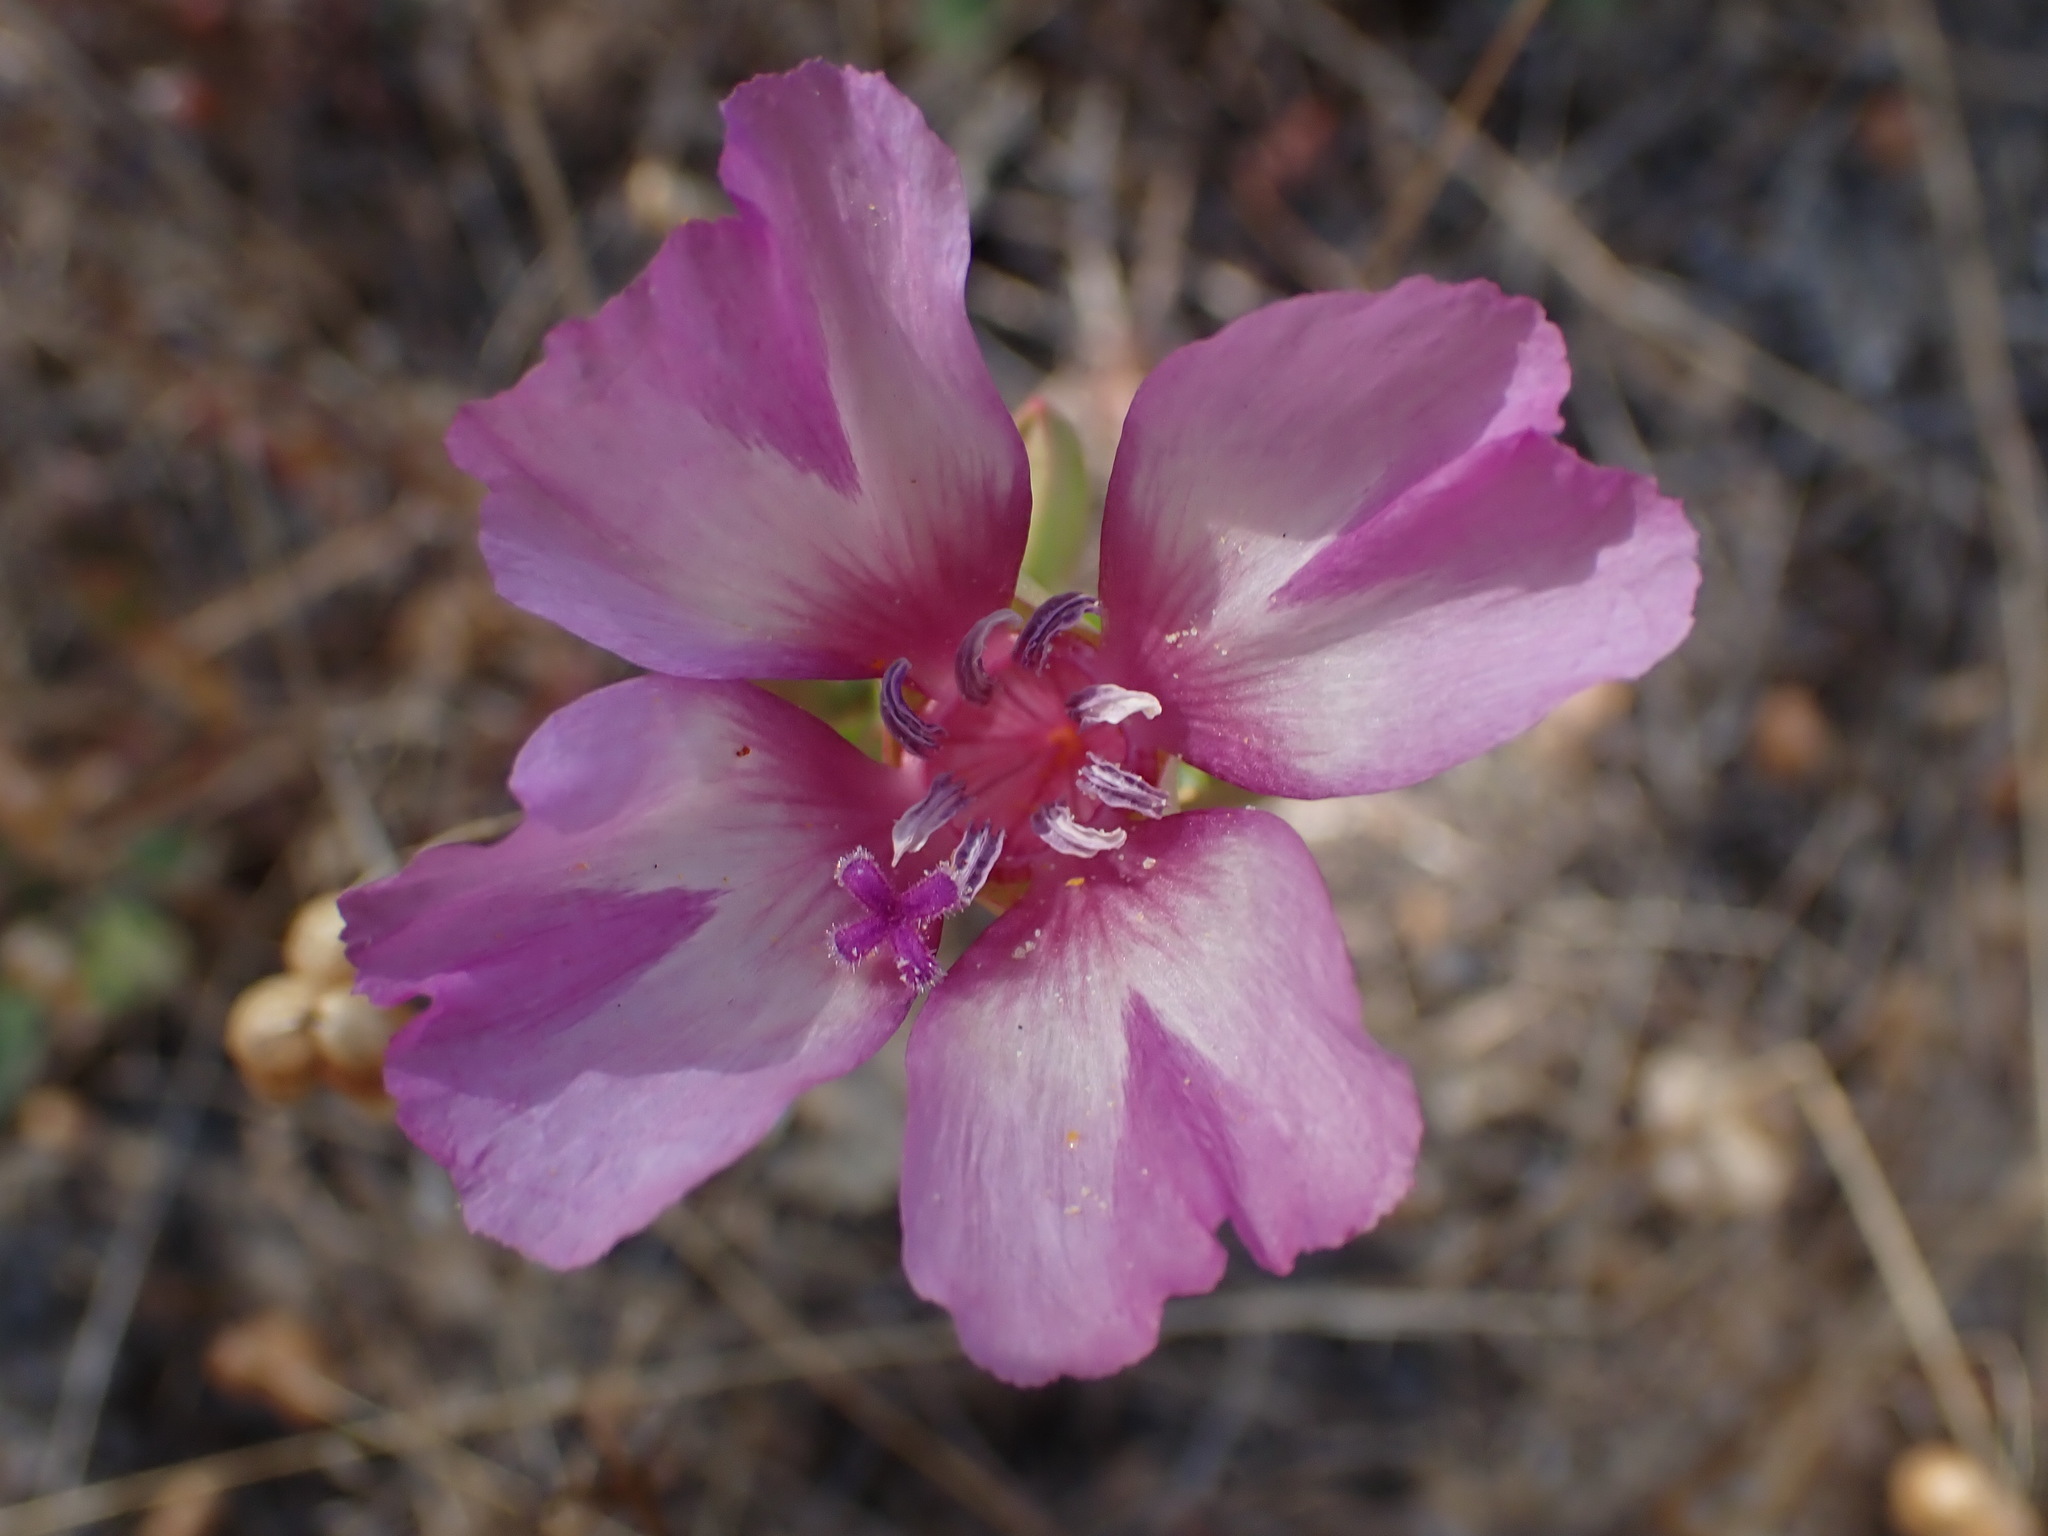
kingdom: Plantae
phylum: Tracheophyta
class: Magnoliopsida
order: Myrtales
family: Onagraceae
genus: Clarkia
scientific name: Clarkia imbricata
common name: Vine hill clarkia
